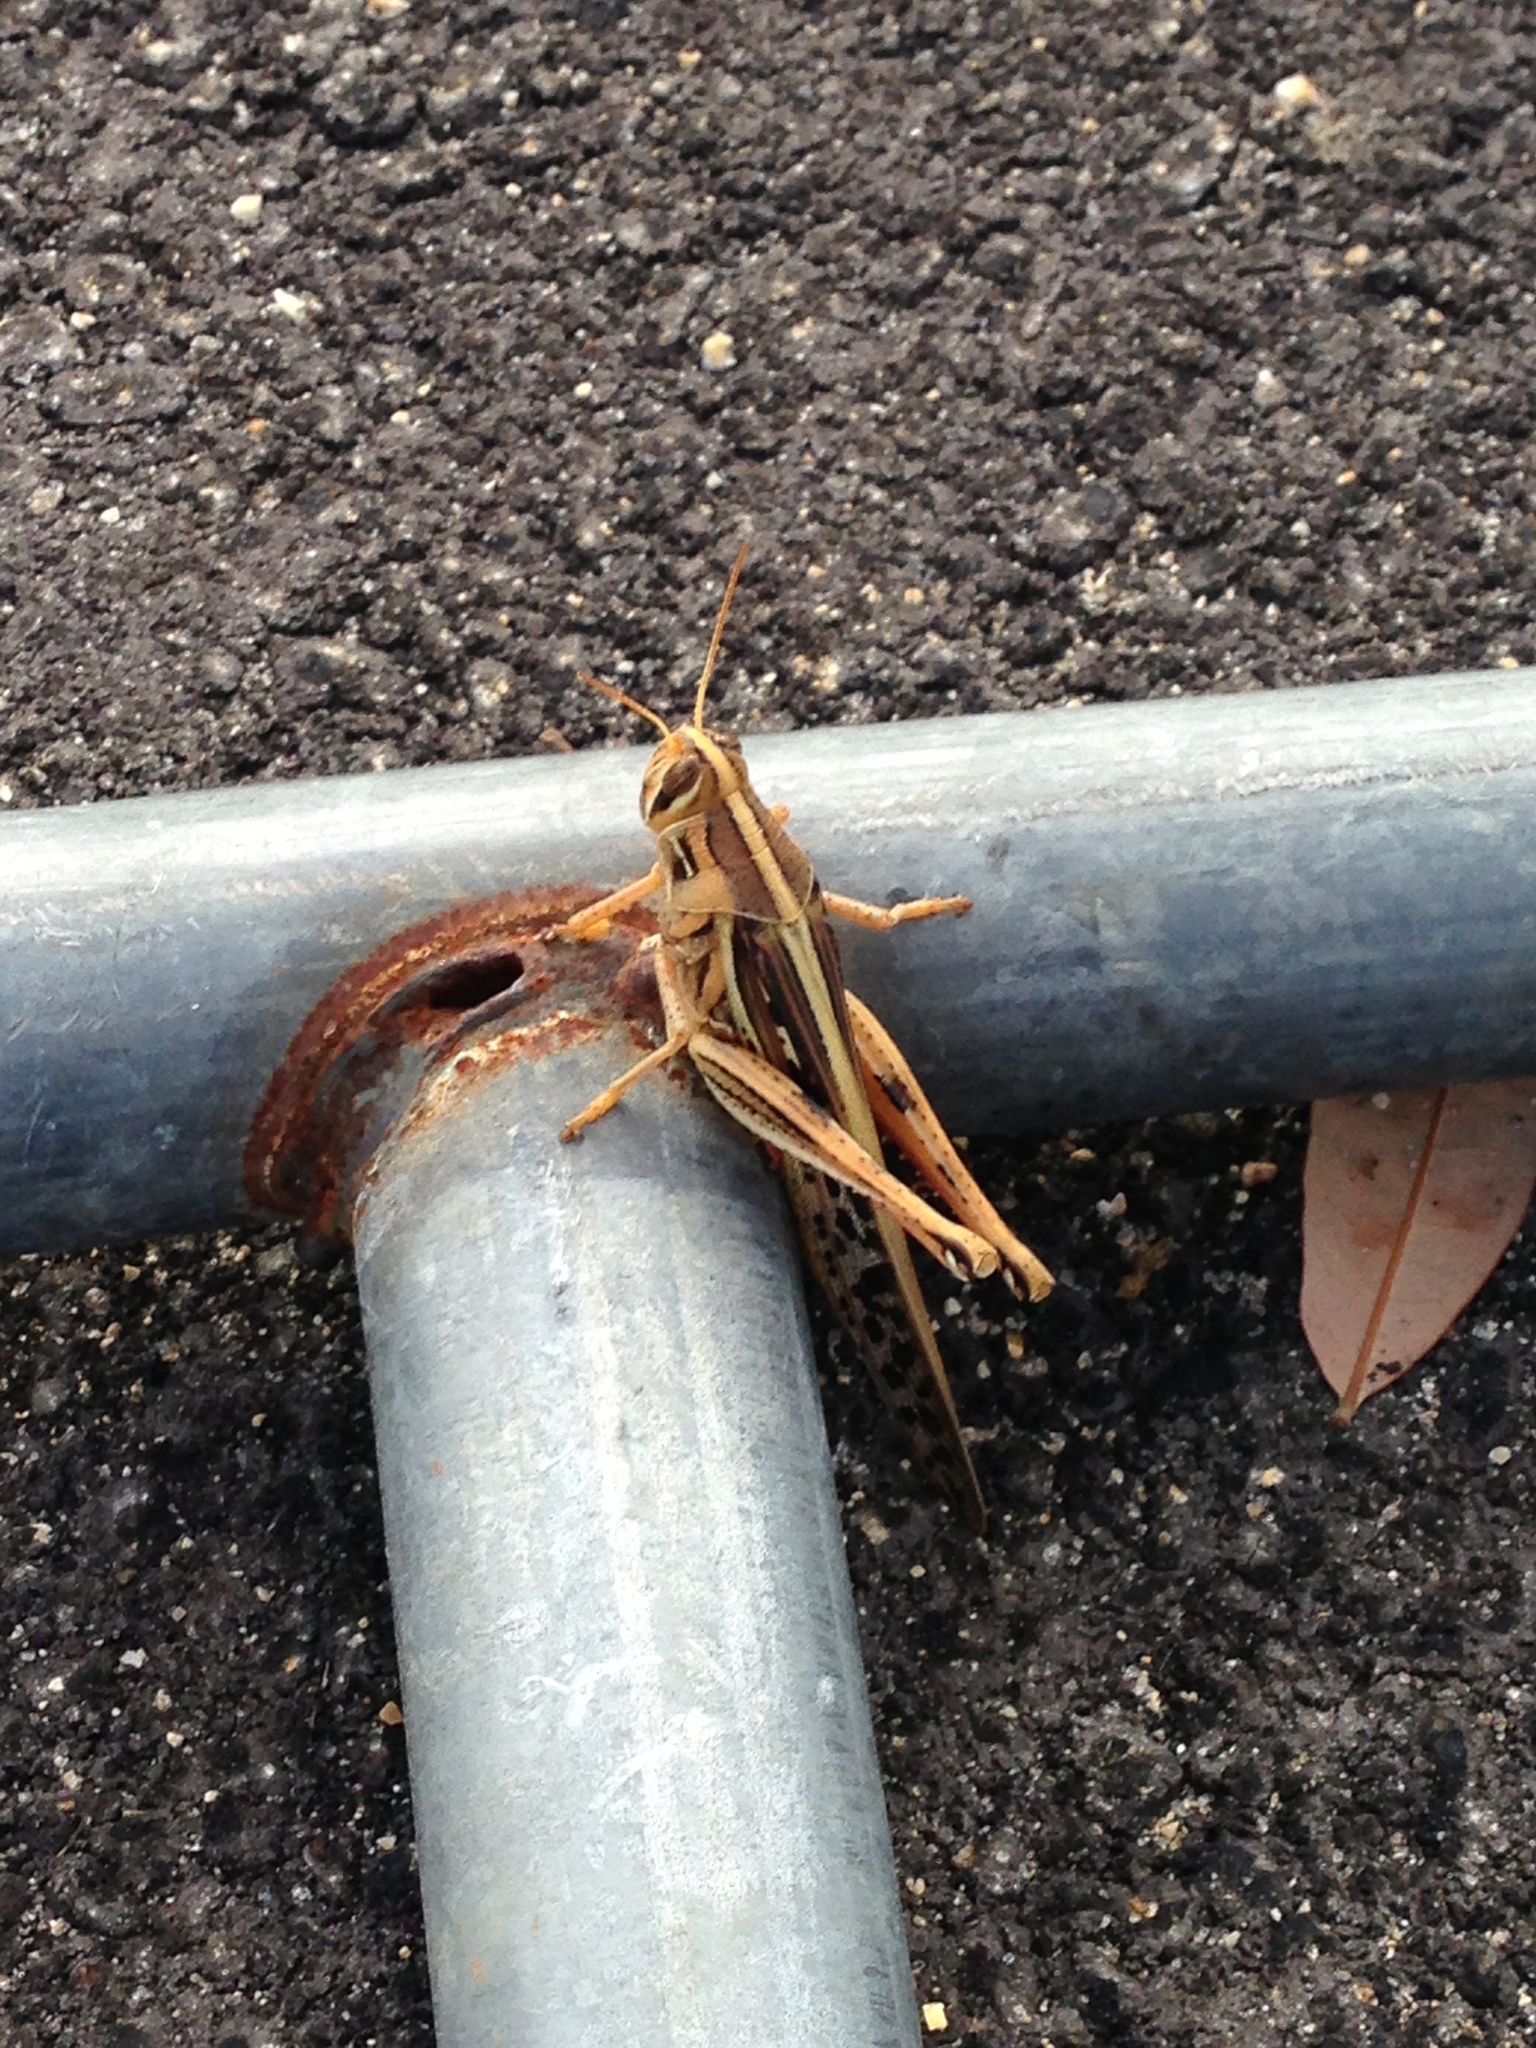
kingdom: Animalia
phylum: Arthropoda
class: Insecta
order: Orthoptera
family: Acrididae
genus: Schistocerca
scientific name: Schistocerca americana
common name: American bird locust
